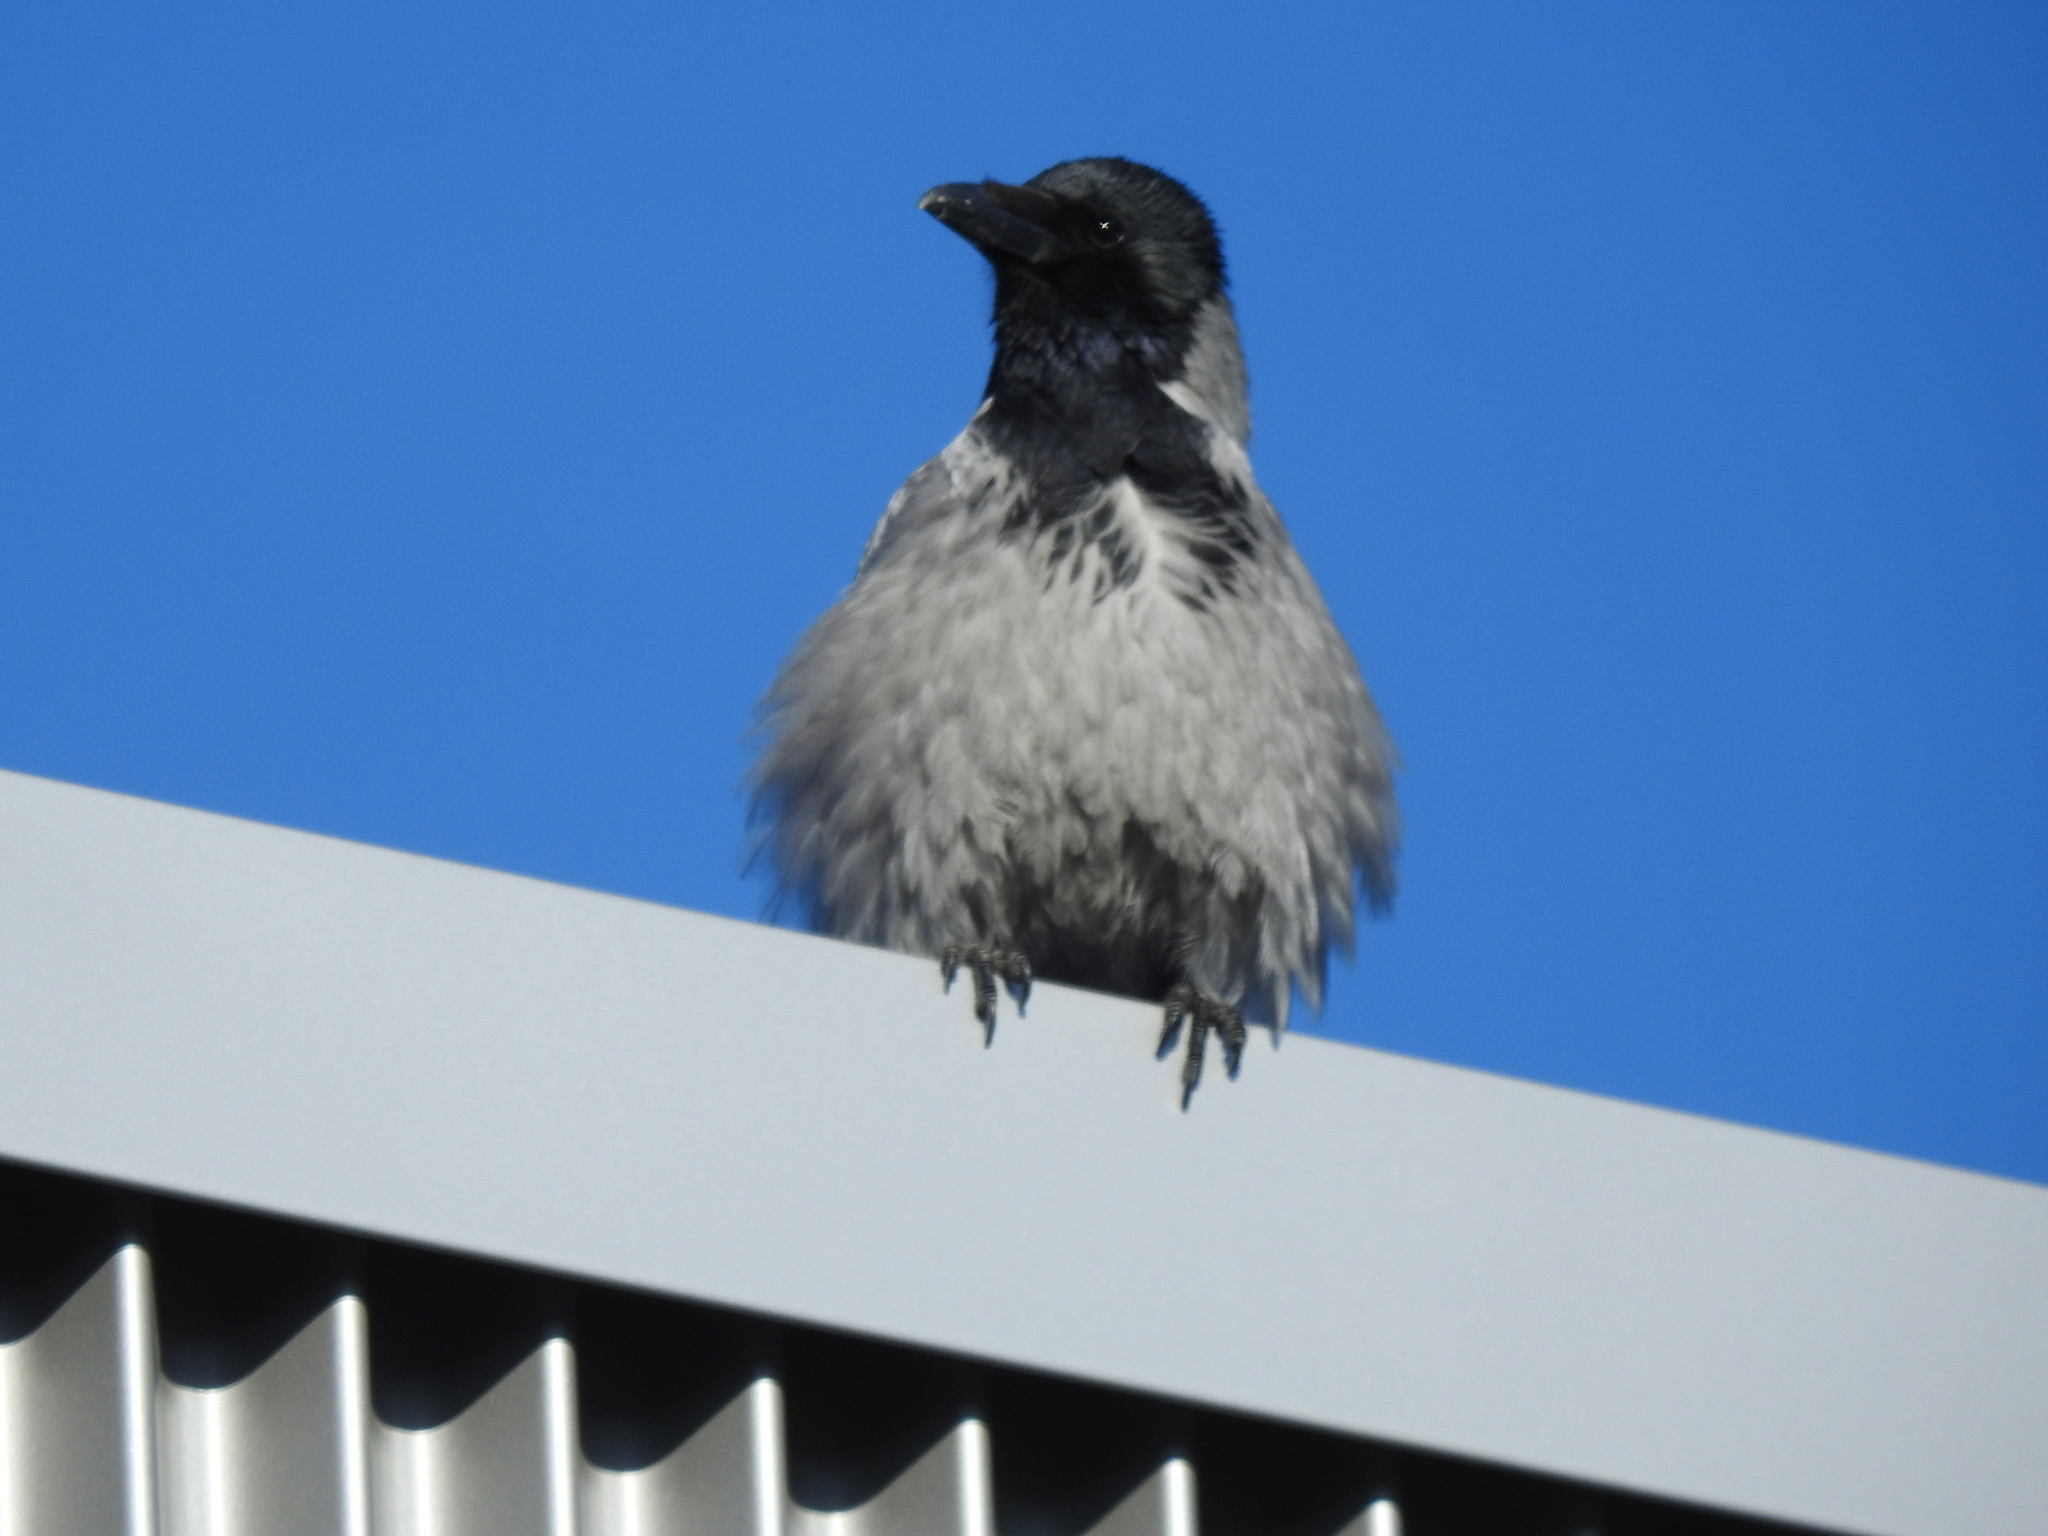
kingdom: Animalia
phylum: Chordata
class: Aves
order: Passeriformes
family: Corvidae
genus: Corvus
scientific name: Corvus cornix
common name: Hooded crow
